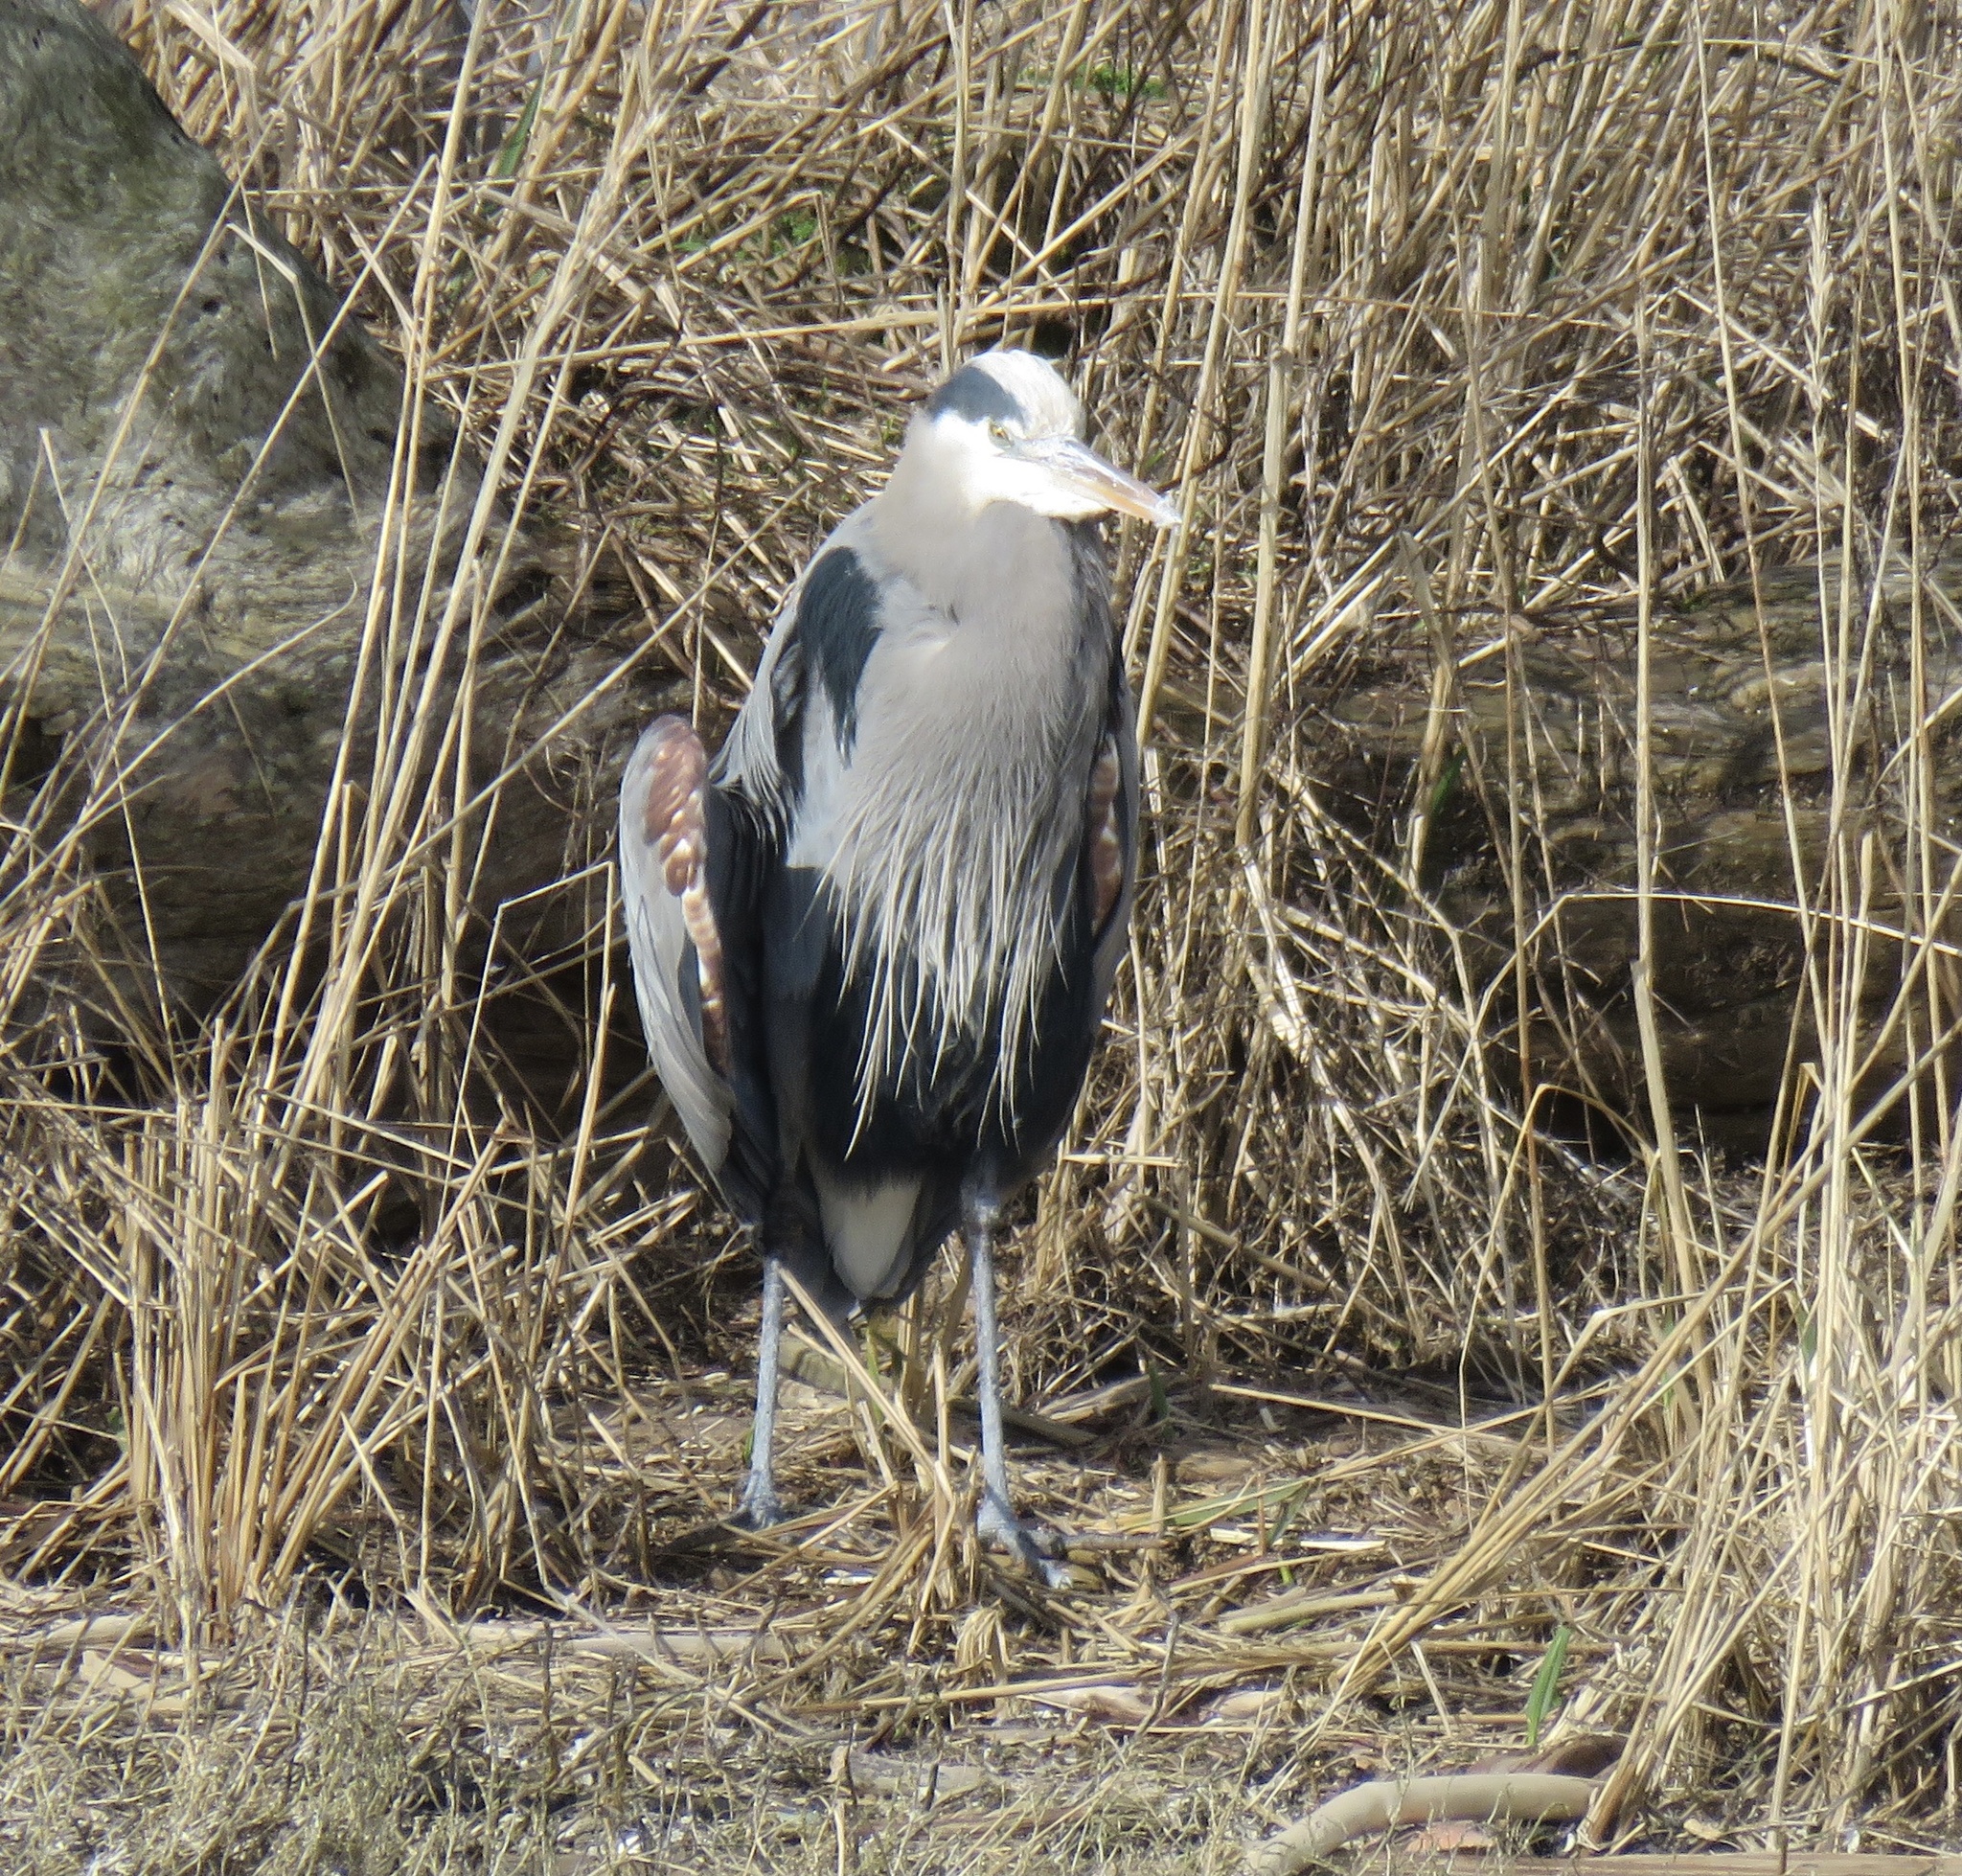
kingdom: Animalia
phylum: Chordata
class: Aves
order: Pelecaniformes
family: Ardeidae
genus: Ardea
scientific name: Ardea herodias
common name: Great blue heron
